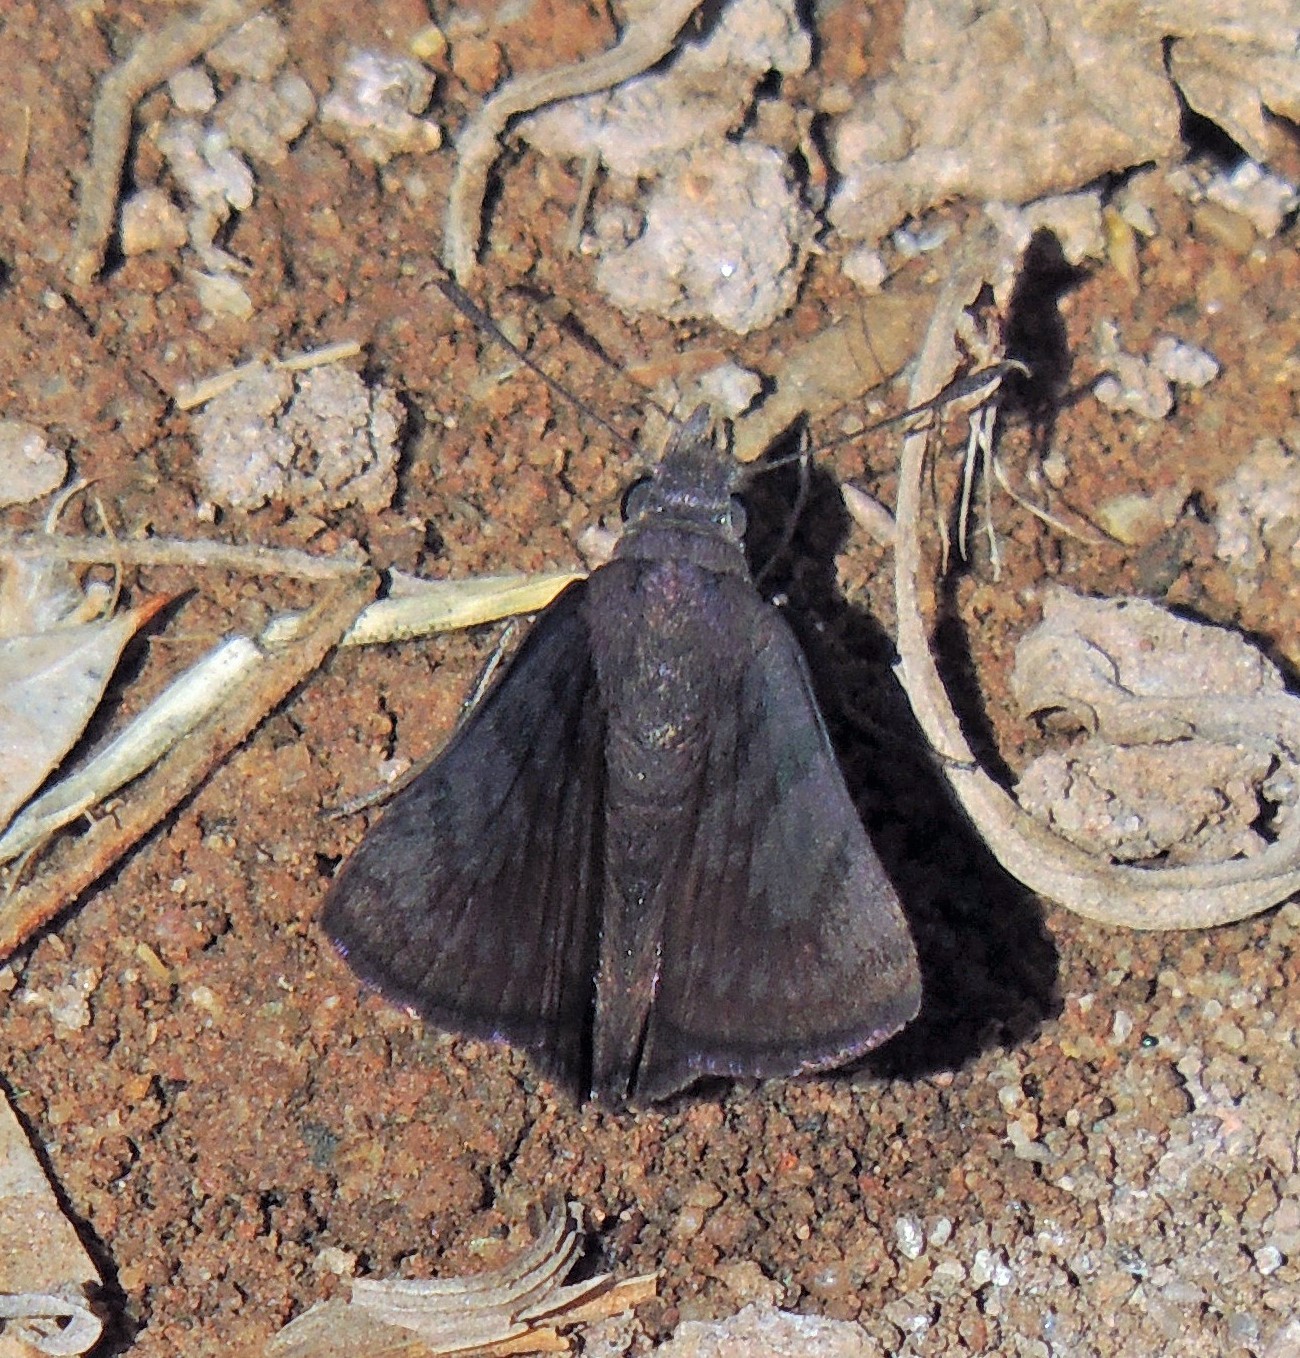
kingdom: Animalia
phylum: Arthropoda
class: Insecta
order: Lepidoptera
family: Hesperiidae
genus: Gesta
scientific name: Gesta austerus
